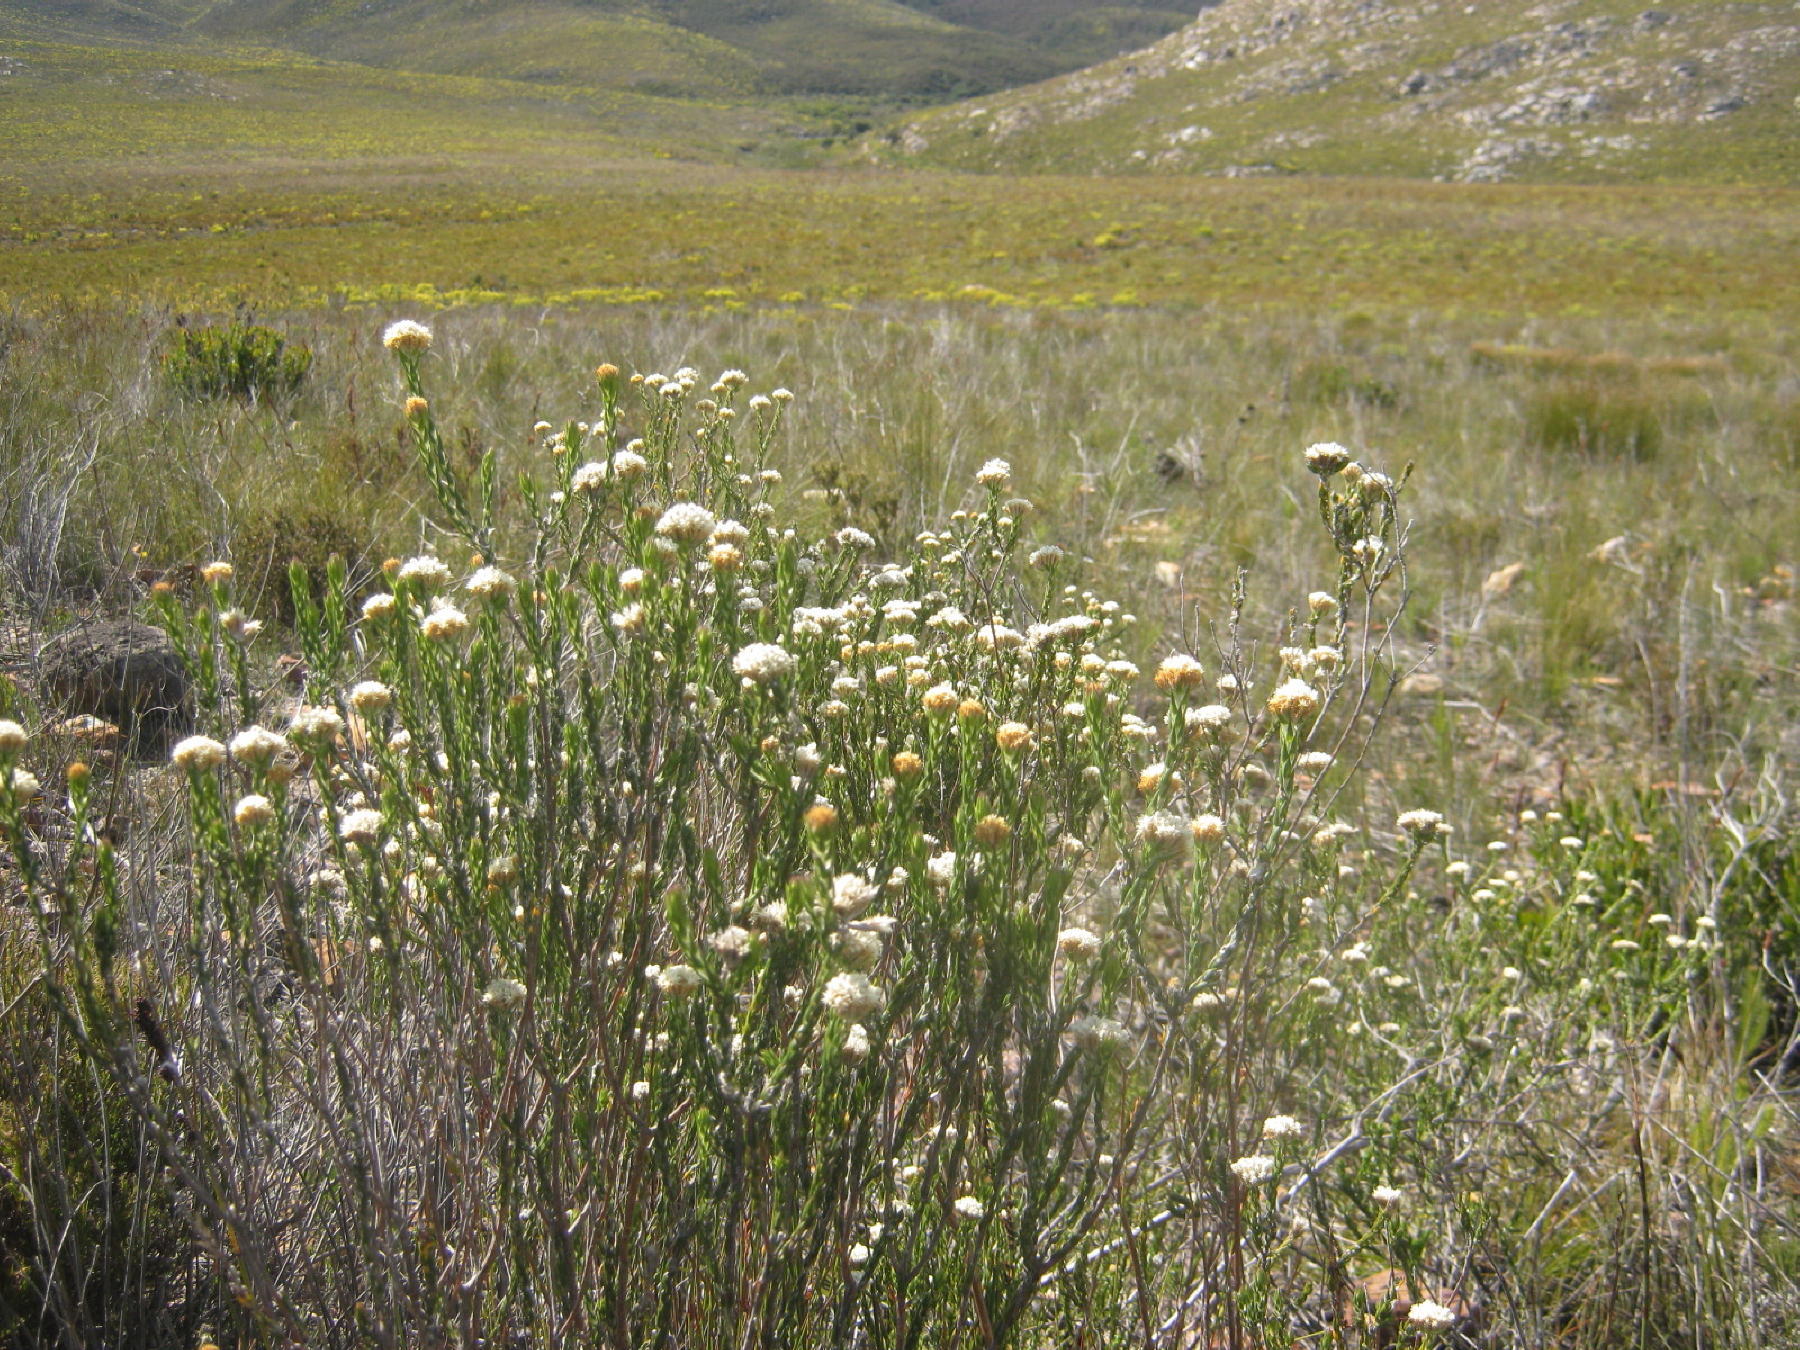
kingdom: Plantae
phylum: Tracheophyta
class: Magnoliopsida
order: Asterales
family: Asteraceae
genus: Metalasia
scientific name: Metalasia pulcherrima
